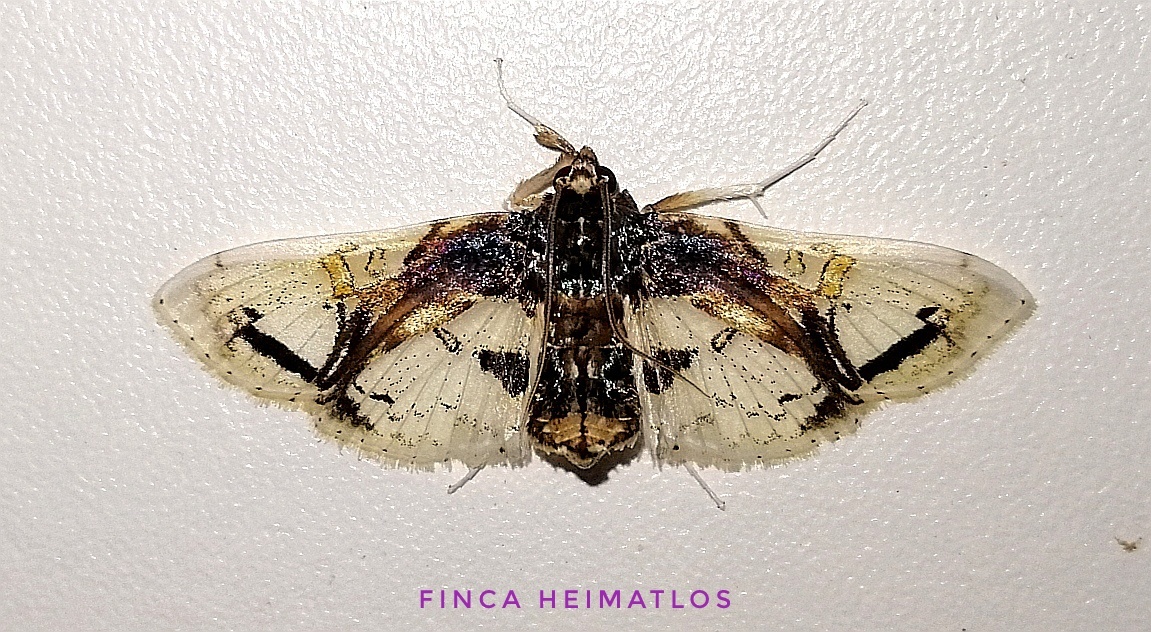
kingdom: Animalia
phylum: Arthropoda
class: Insecta
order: Lepidoptera
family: Crambidae
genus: Compacta
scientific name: Compacta nigrolinealis
